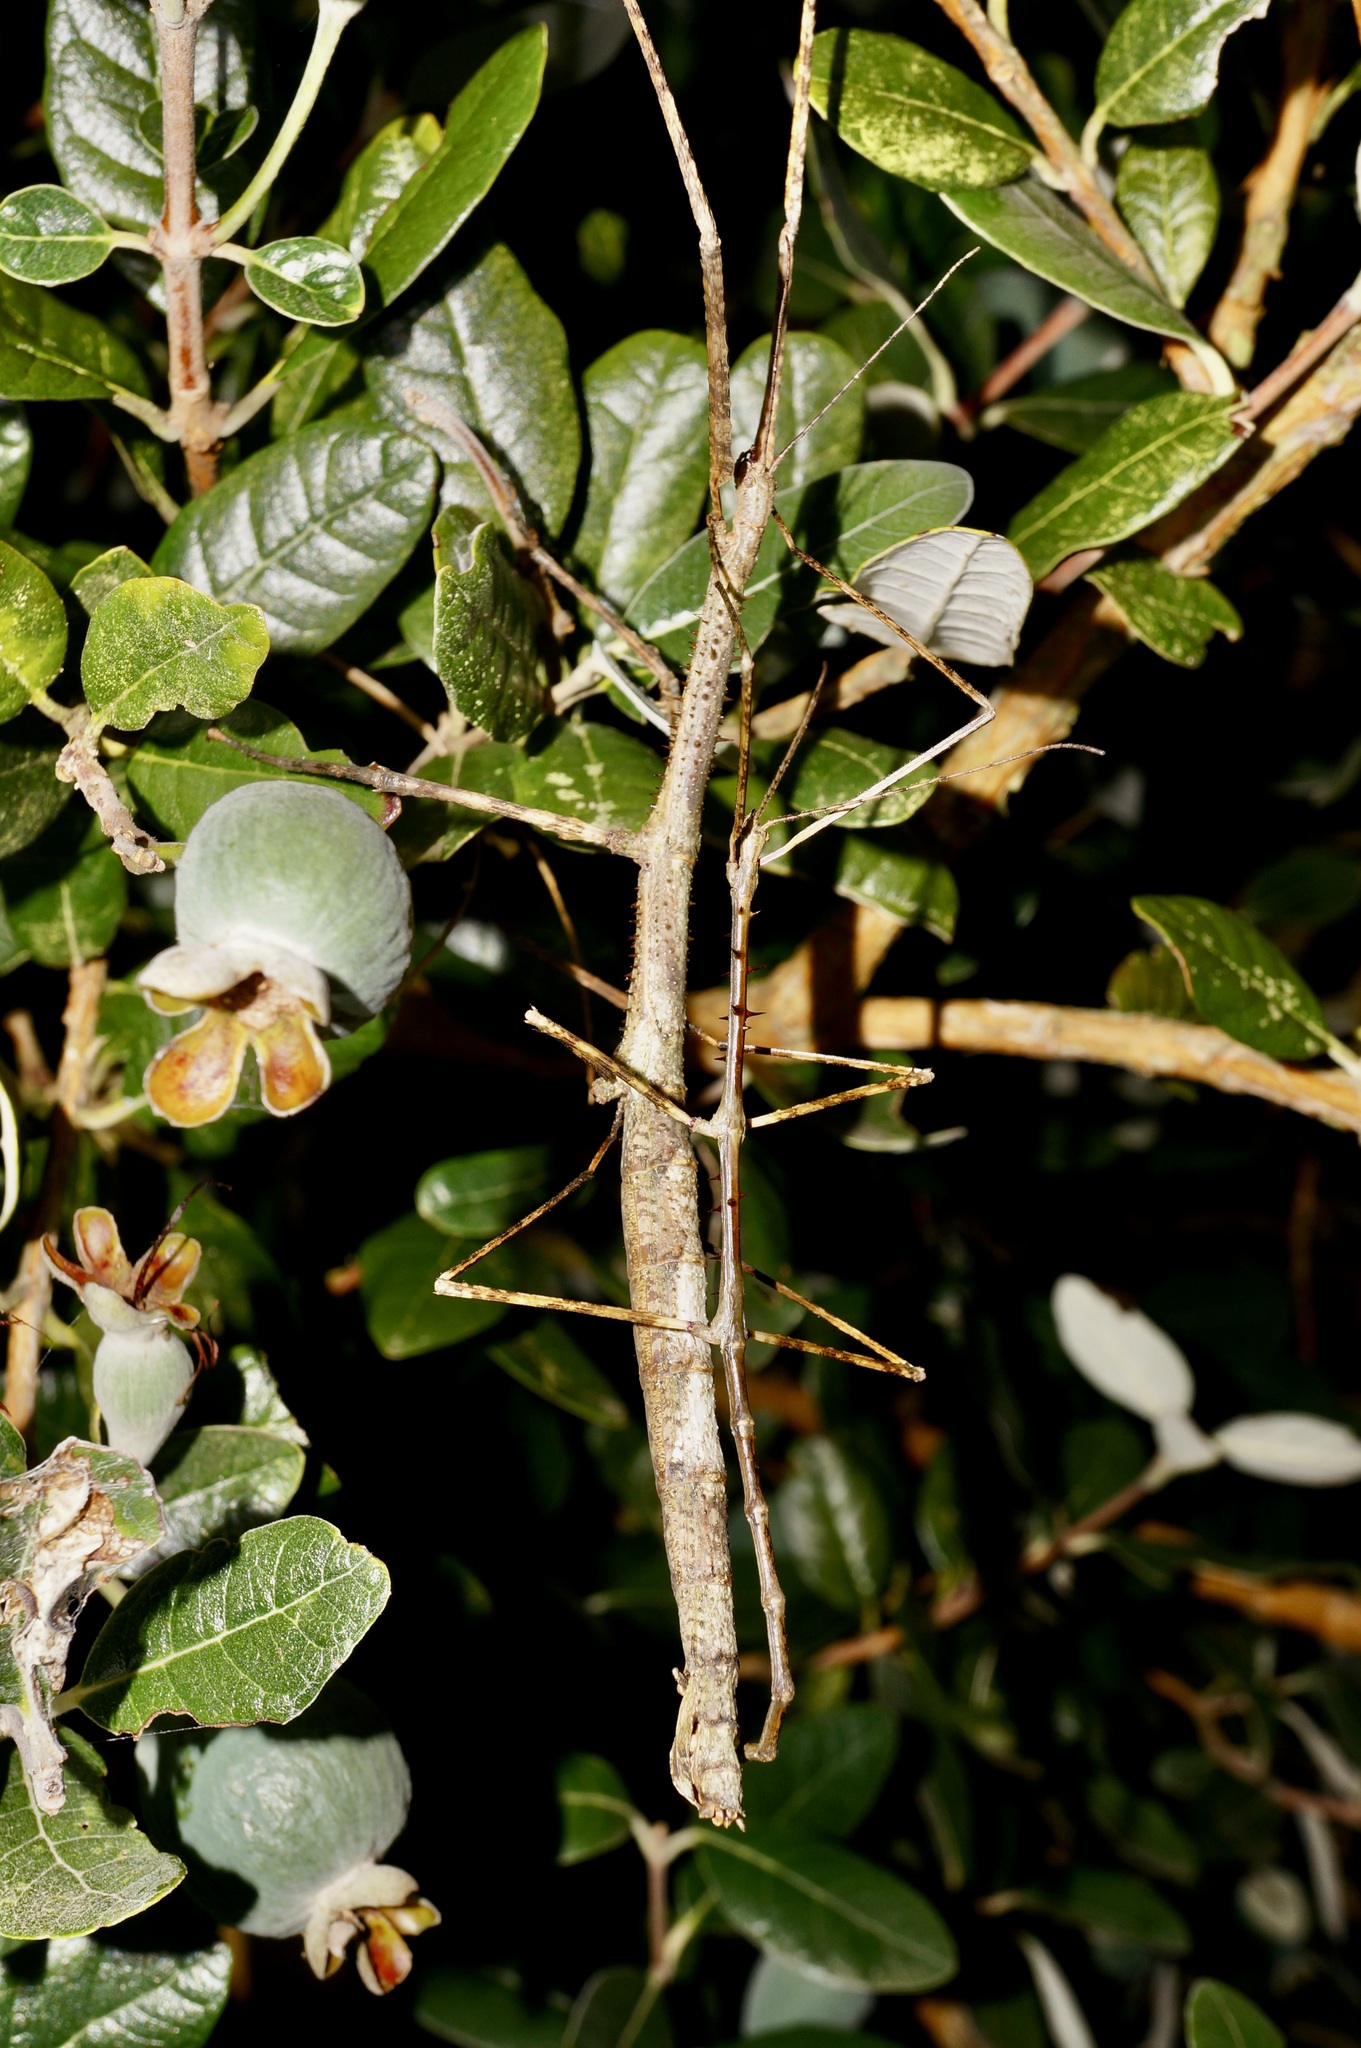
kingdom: Animalia
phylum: Arthropoda
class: Insecta
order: Phasmida
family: Phasmatidae
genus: Argosarchus
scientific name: Argosarchus horridus
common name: Bristly stick insect
